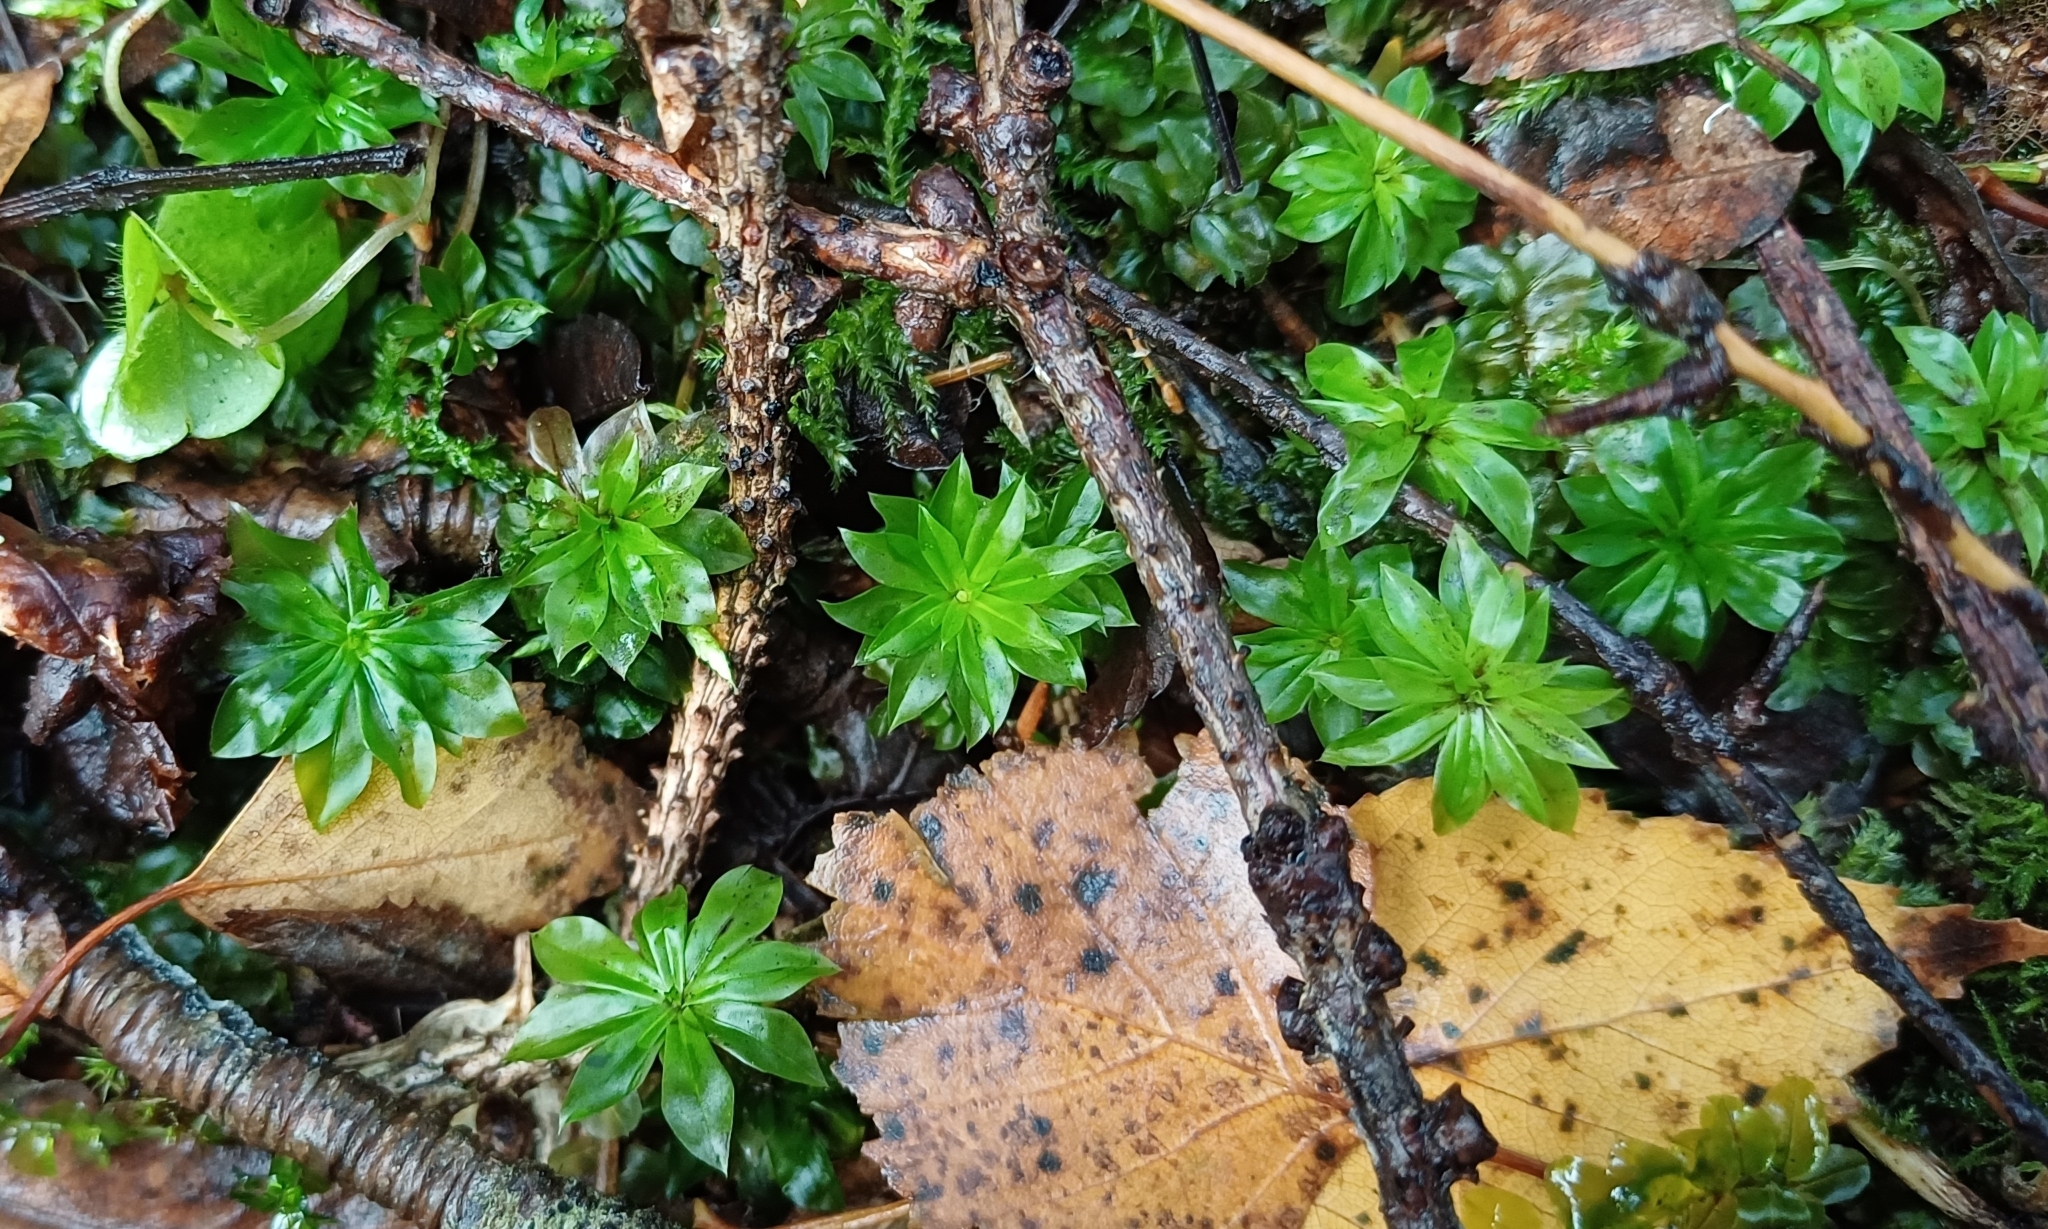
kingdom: Plantae
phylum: Bryophyta
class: Bryopsida
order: Bryales
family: Bryaceae
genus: Rhodobryum
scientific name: Rhodobryum roseum
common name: Rose-moss
